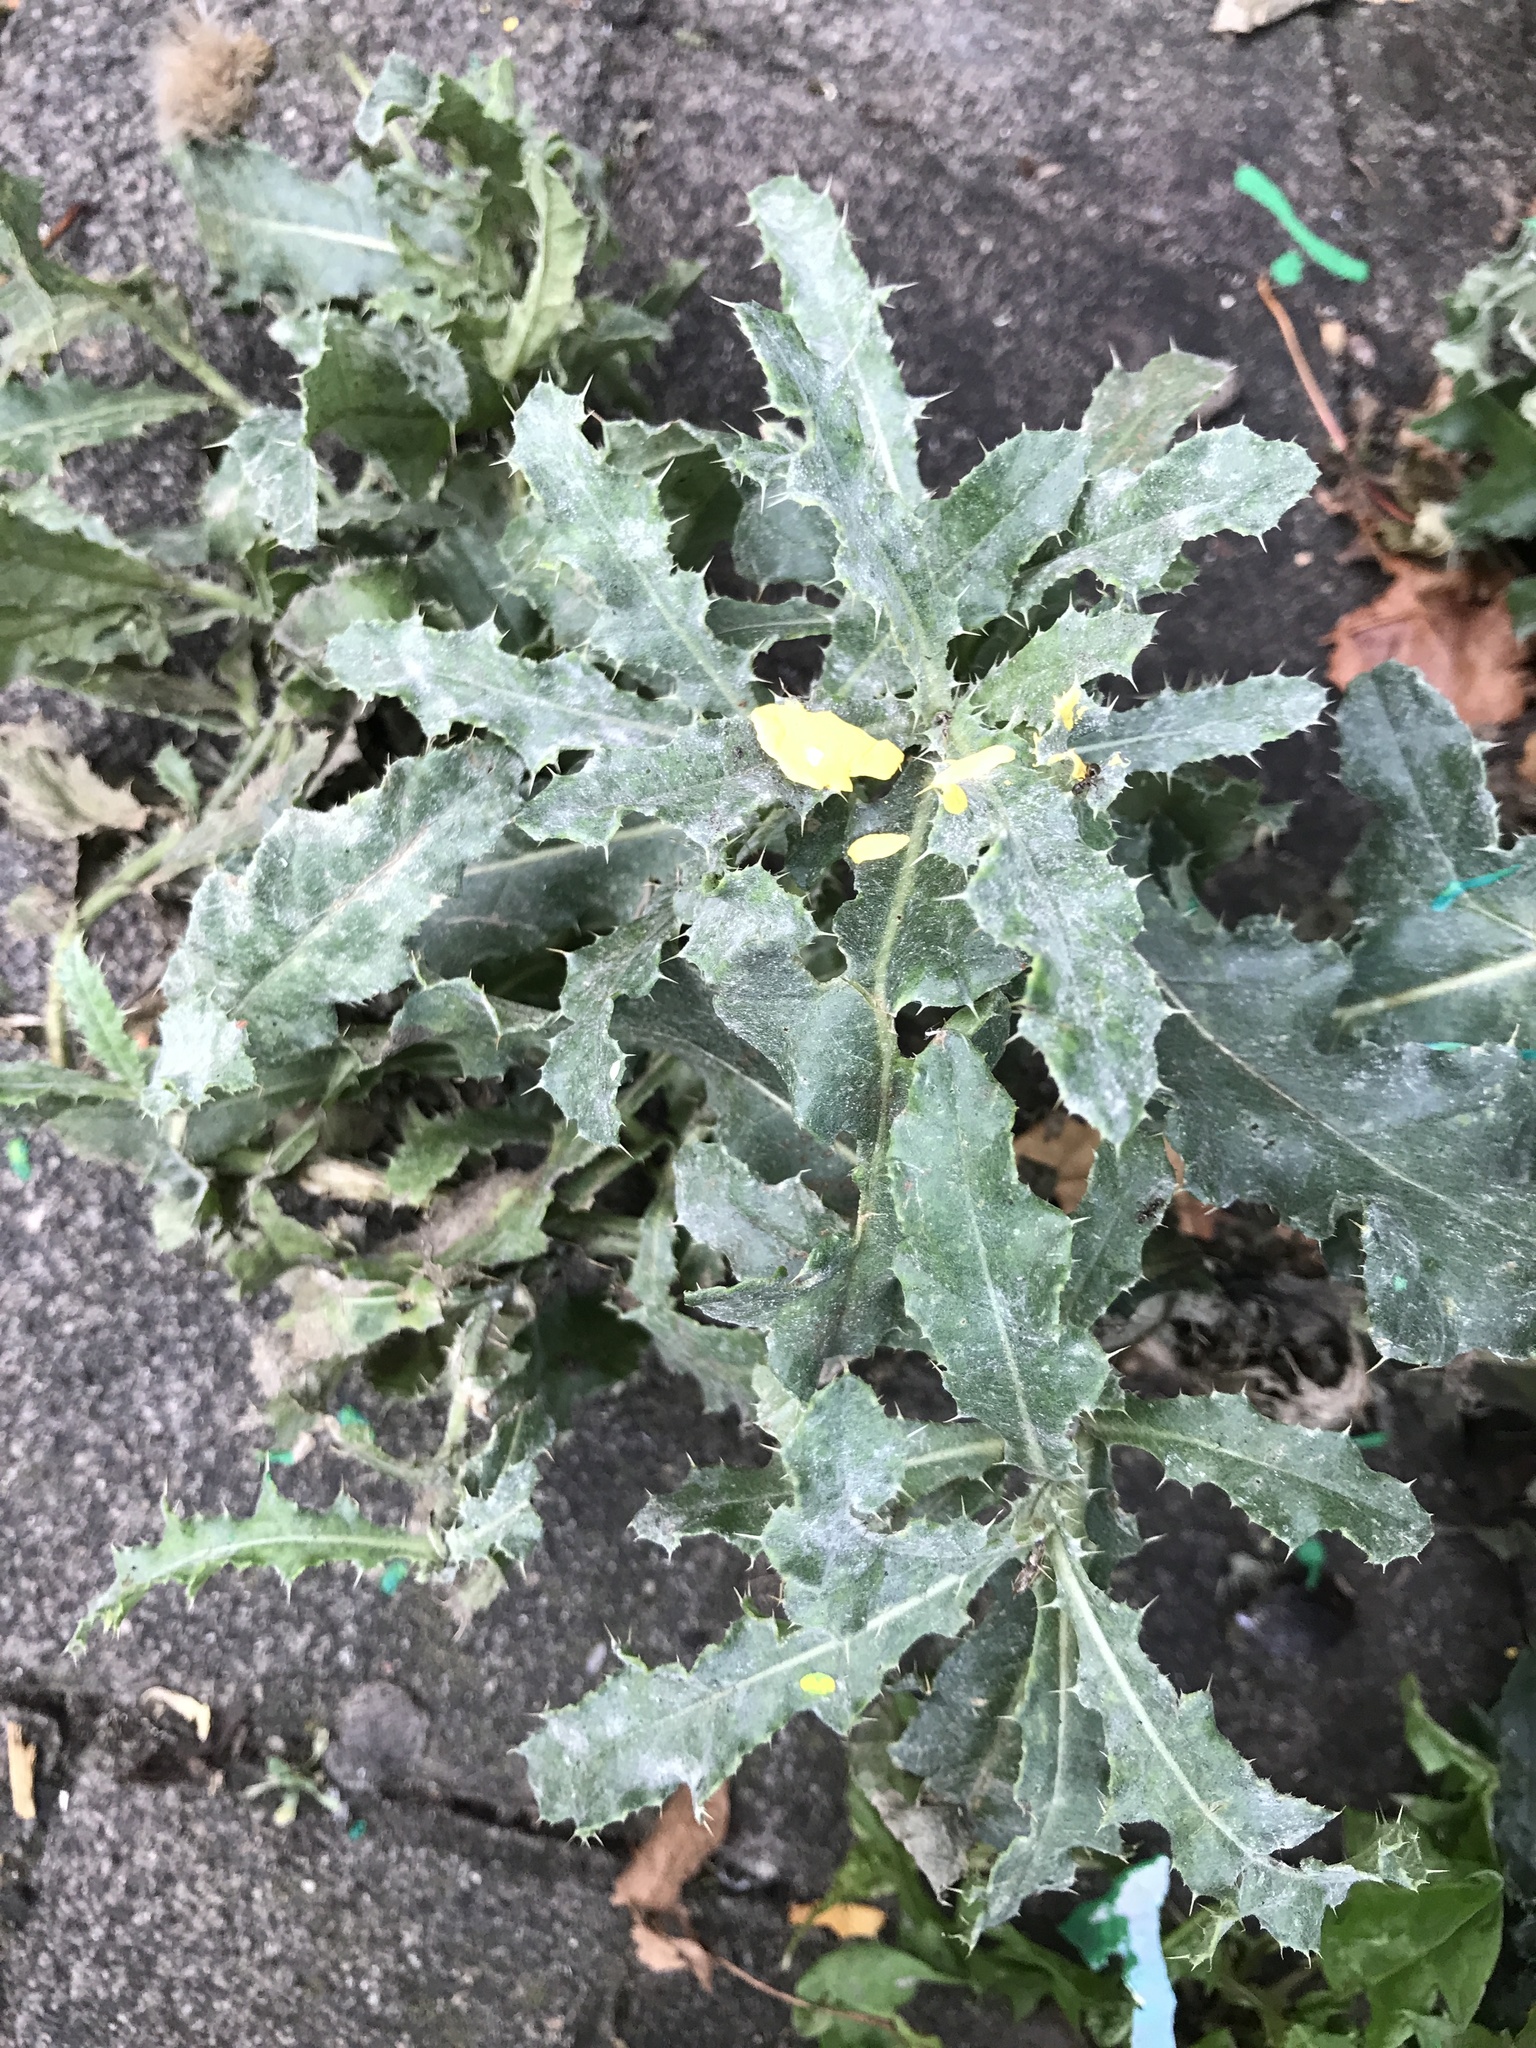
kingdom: Plantae
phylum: Tracheophyta
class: Magnoliopsida
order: Asterales
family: Asteraceae
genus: Cirsium
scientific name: Cirsium arvense
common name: Creeping thistle
